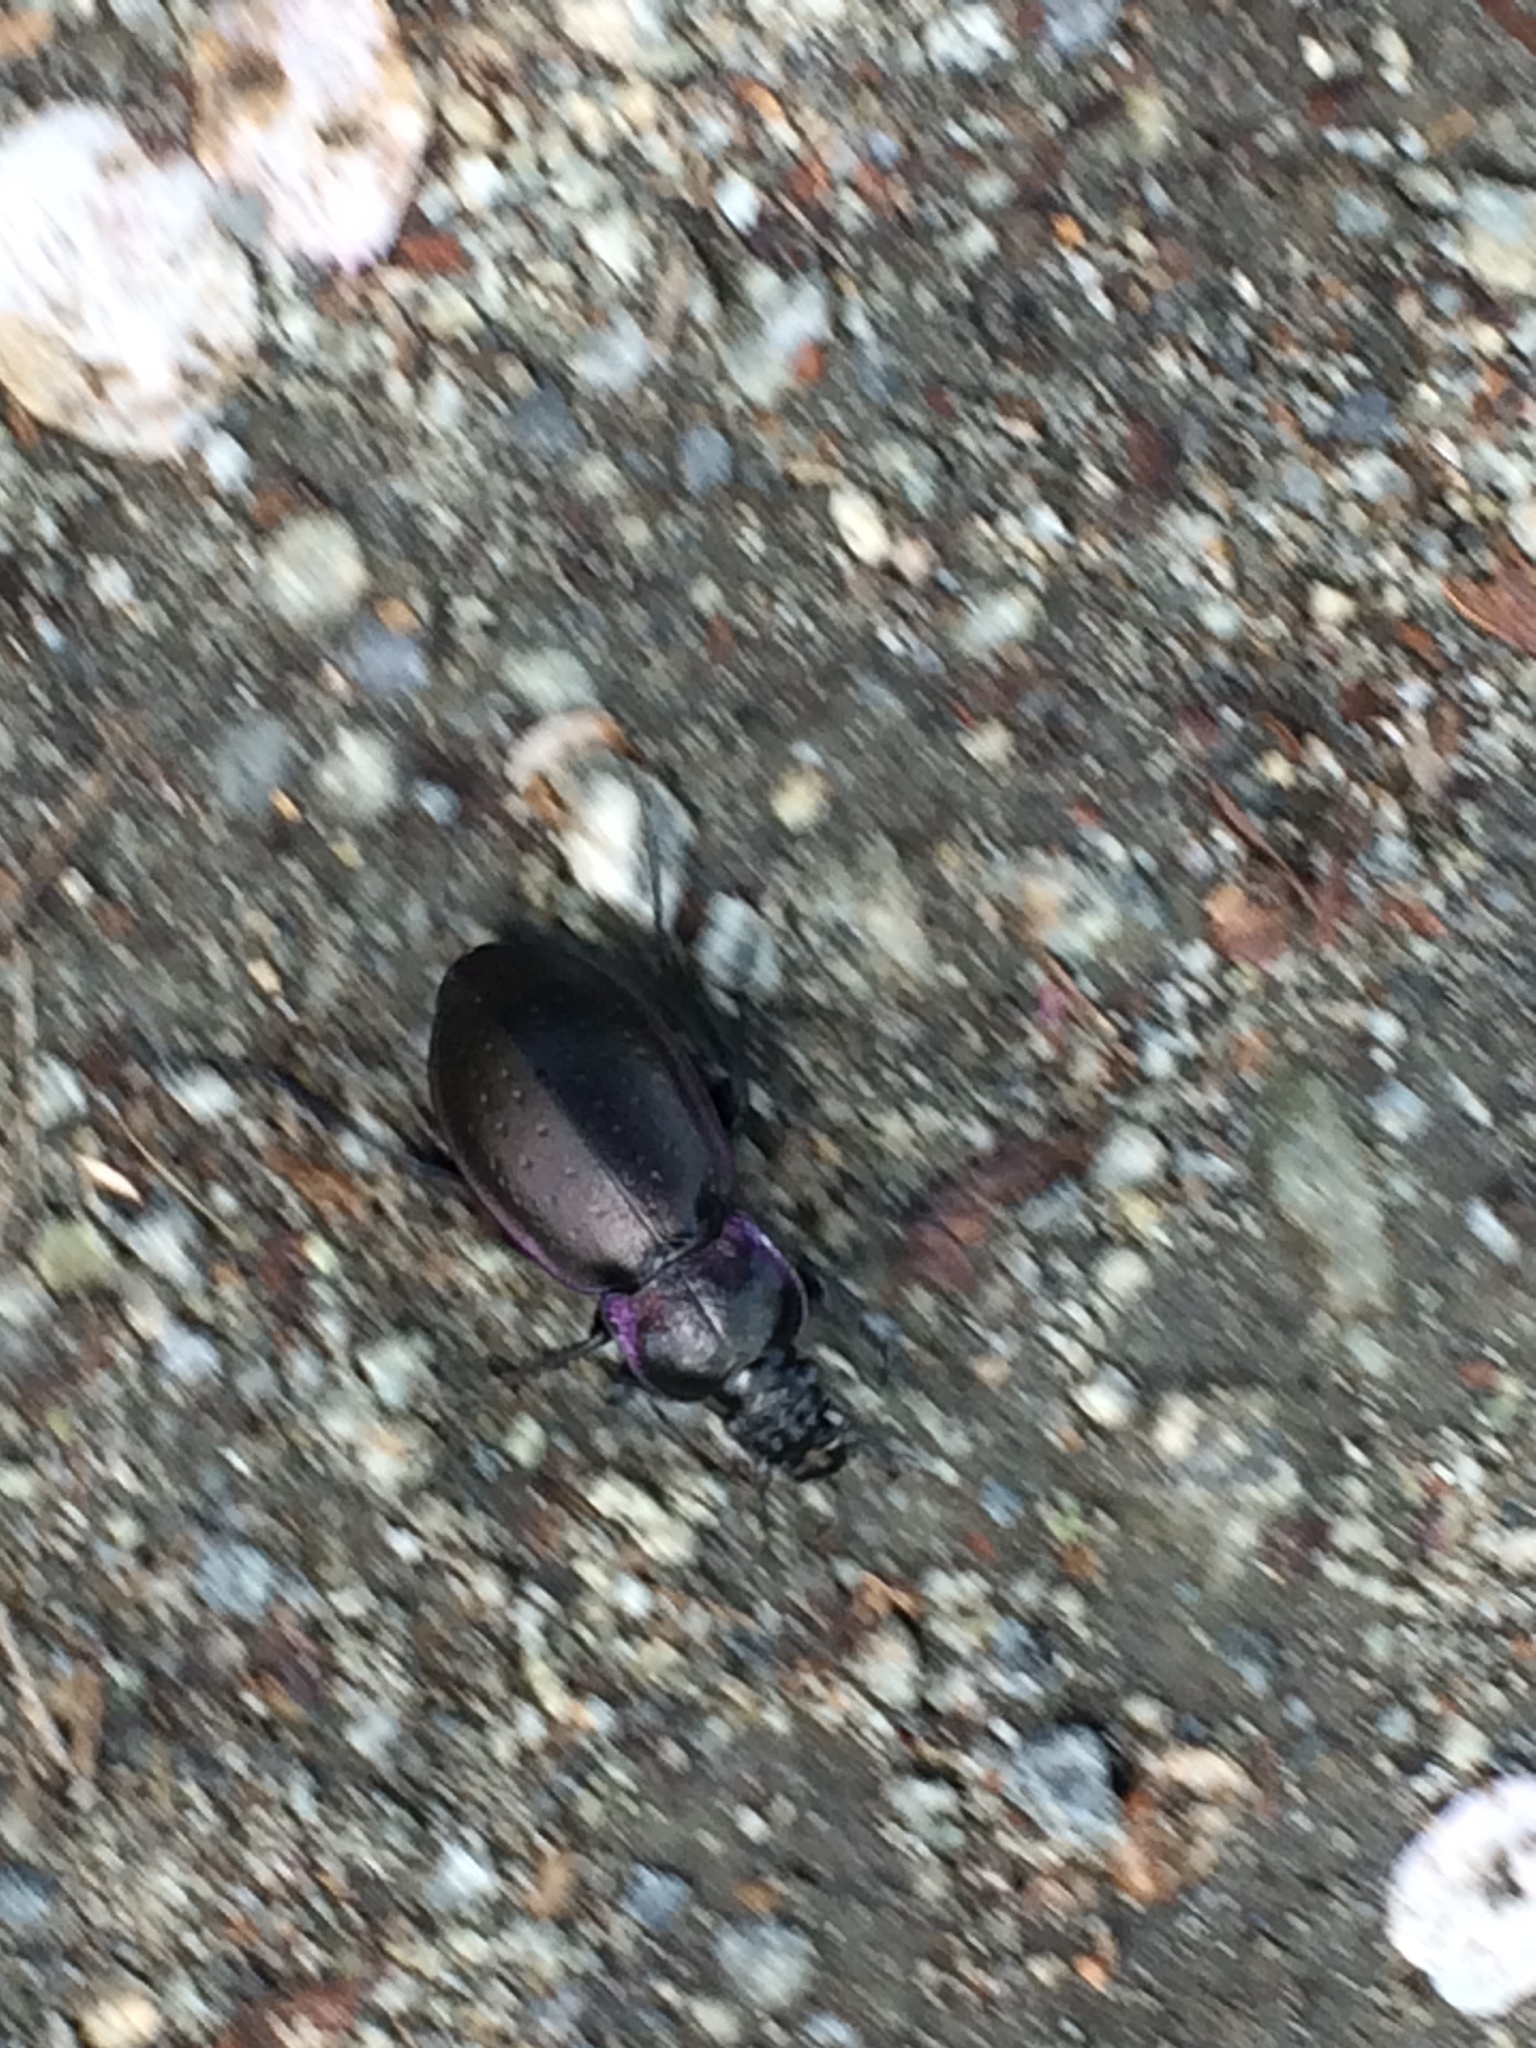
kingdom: Animalia
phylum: Arthropoda
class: Insecta
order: Coleoptera
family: Carabidae
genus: Carabus
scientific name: Carabus nemoralis
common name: European ground beetle
